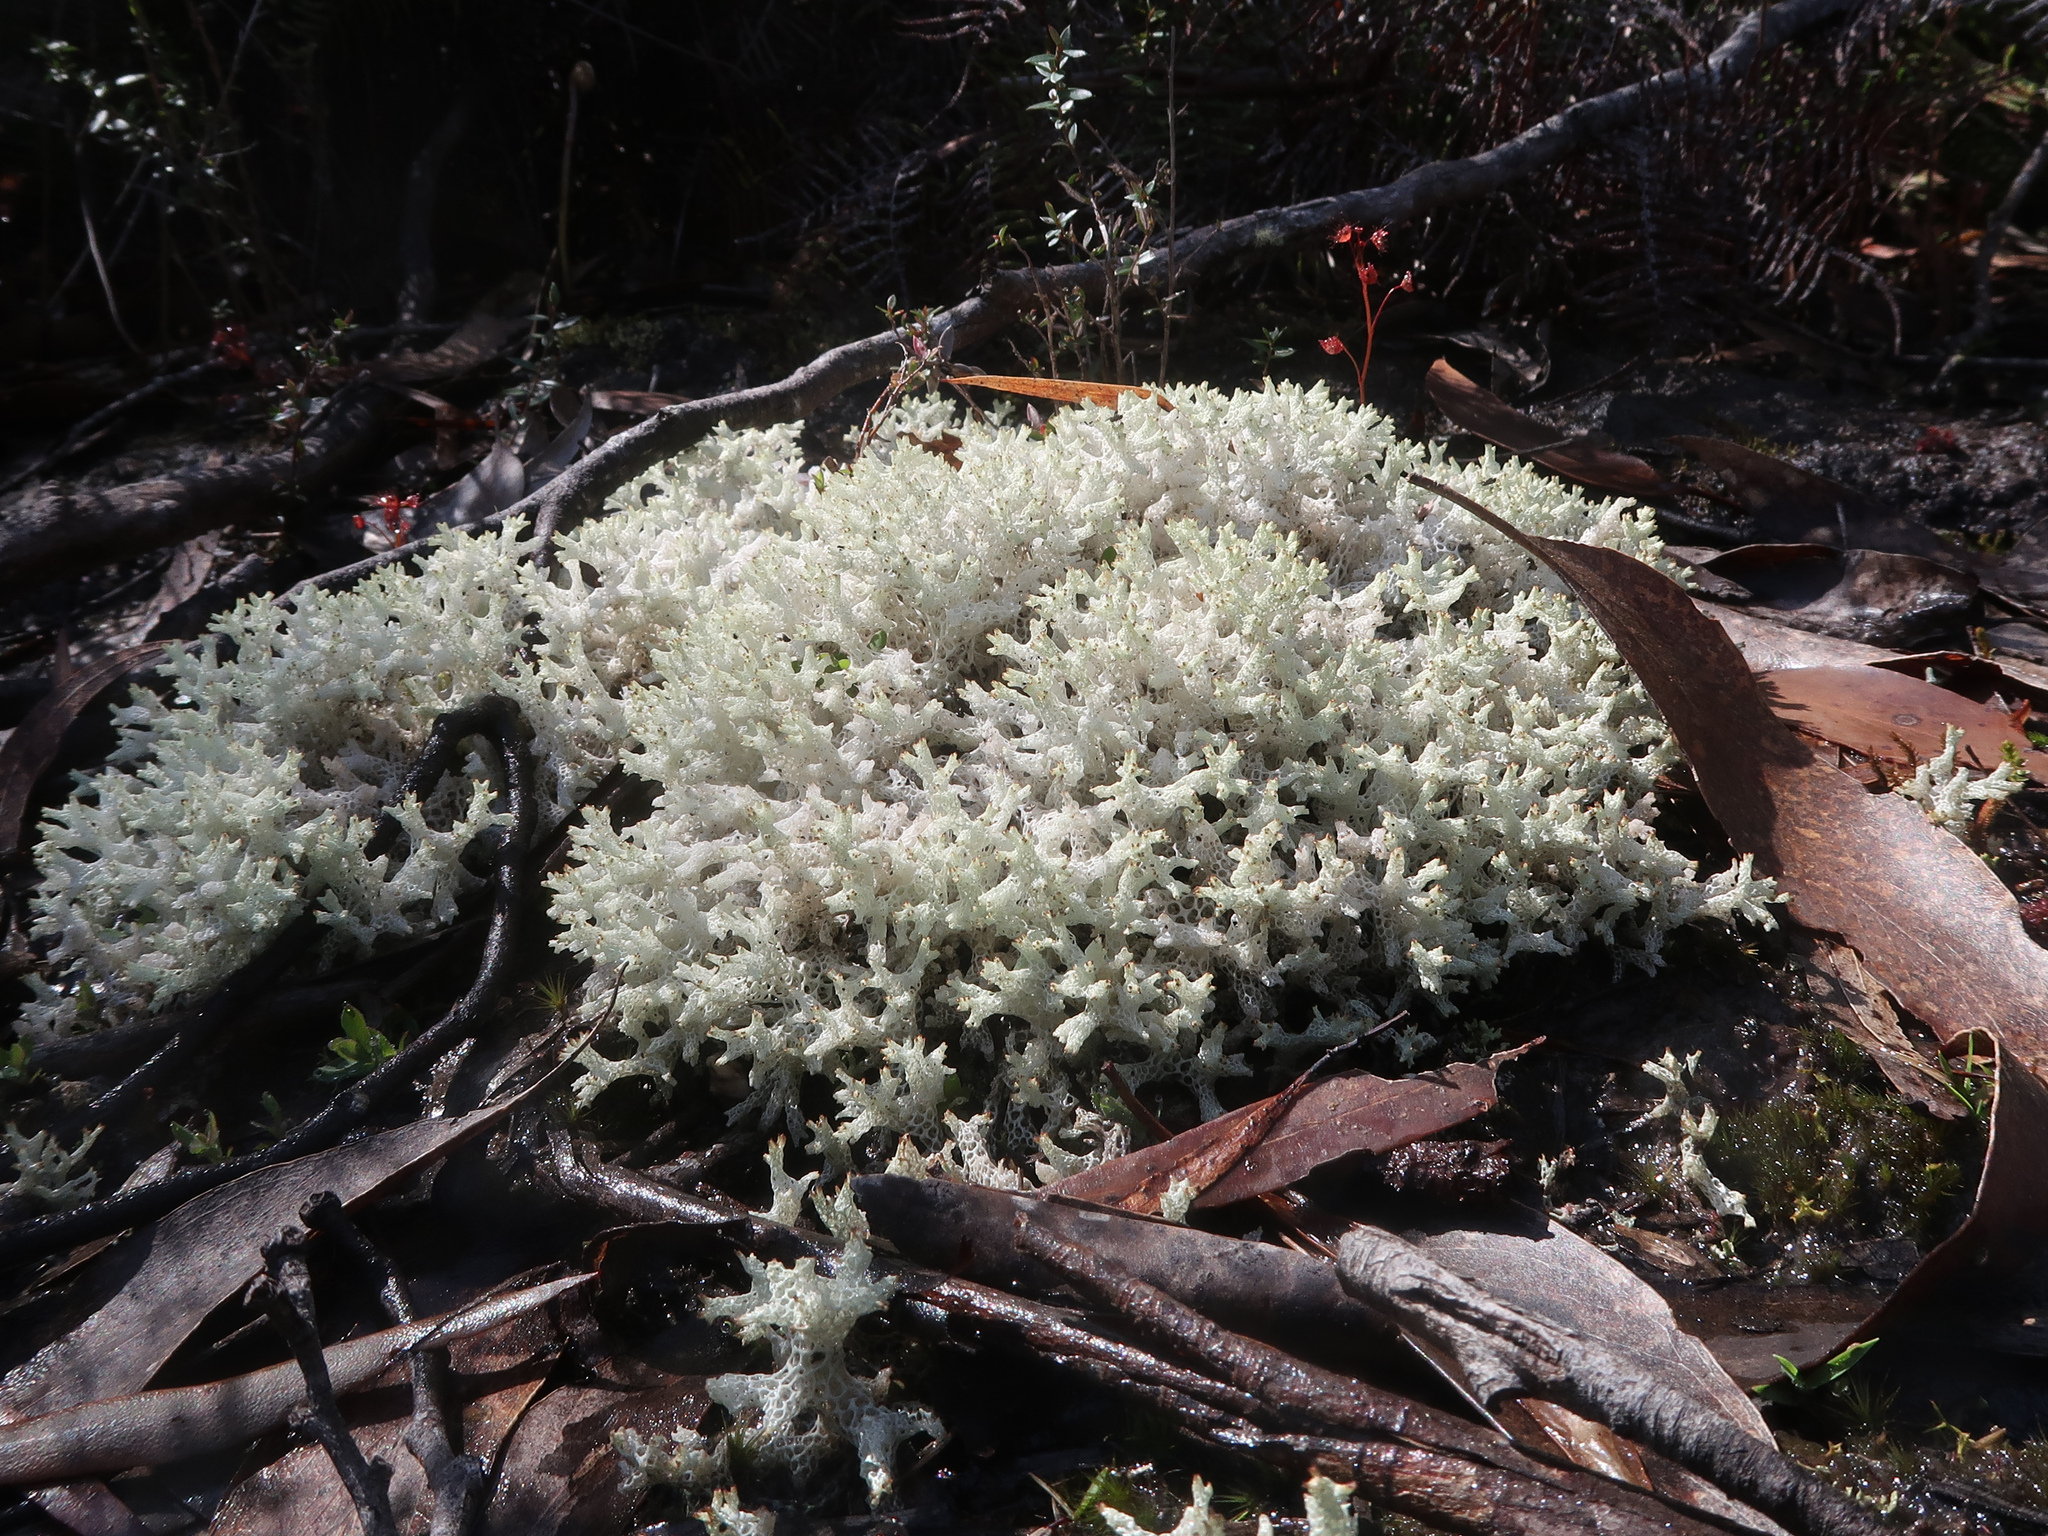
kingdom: Fungi
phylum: Ascomycota
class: Lecanoromycetes
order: Lecanorales
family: Cladoniaceae
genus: Pulchrocladia
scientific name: Pulchrocladia retipora
